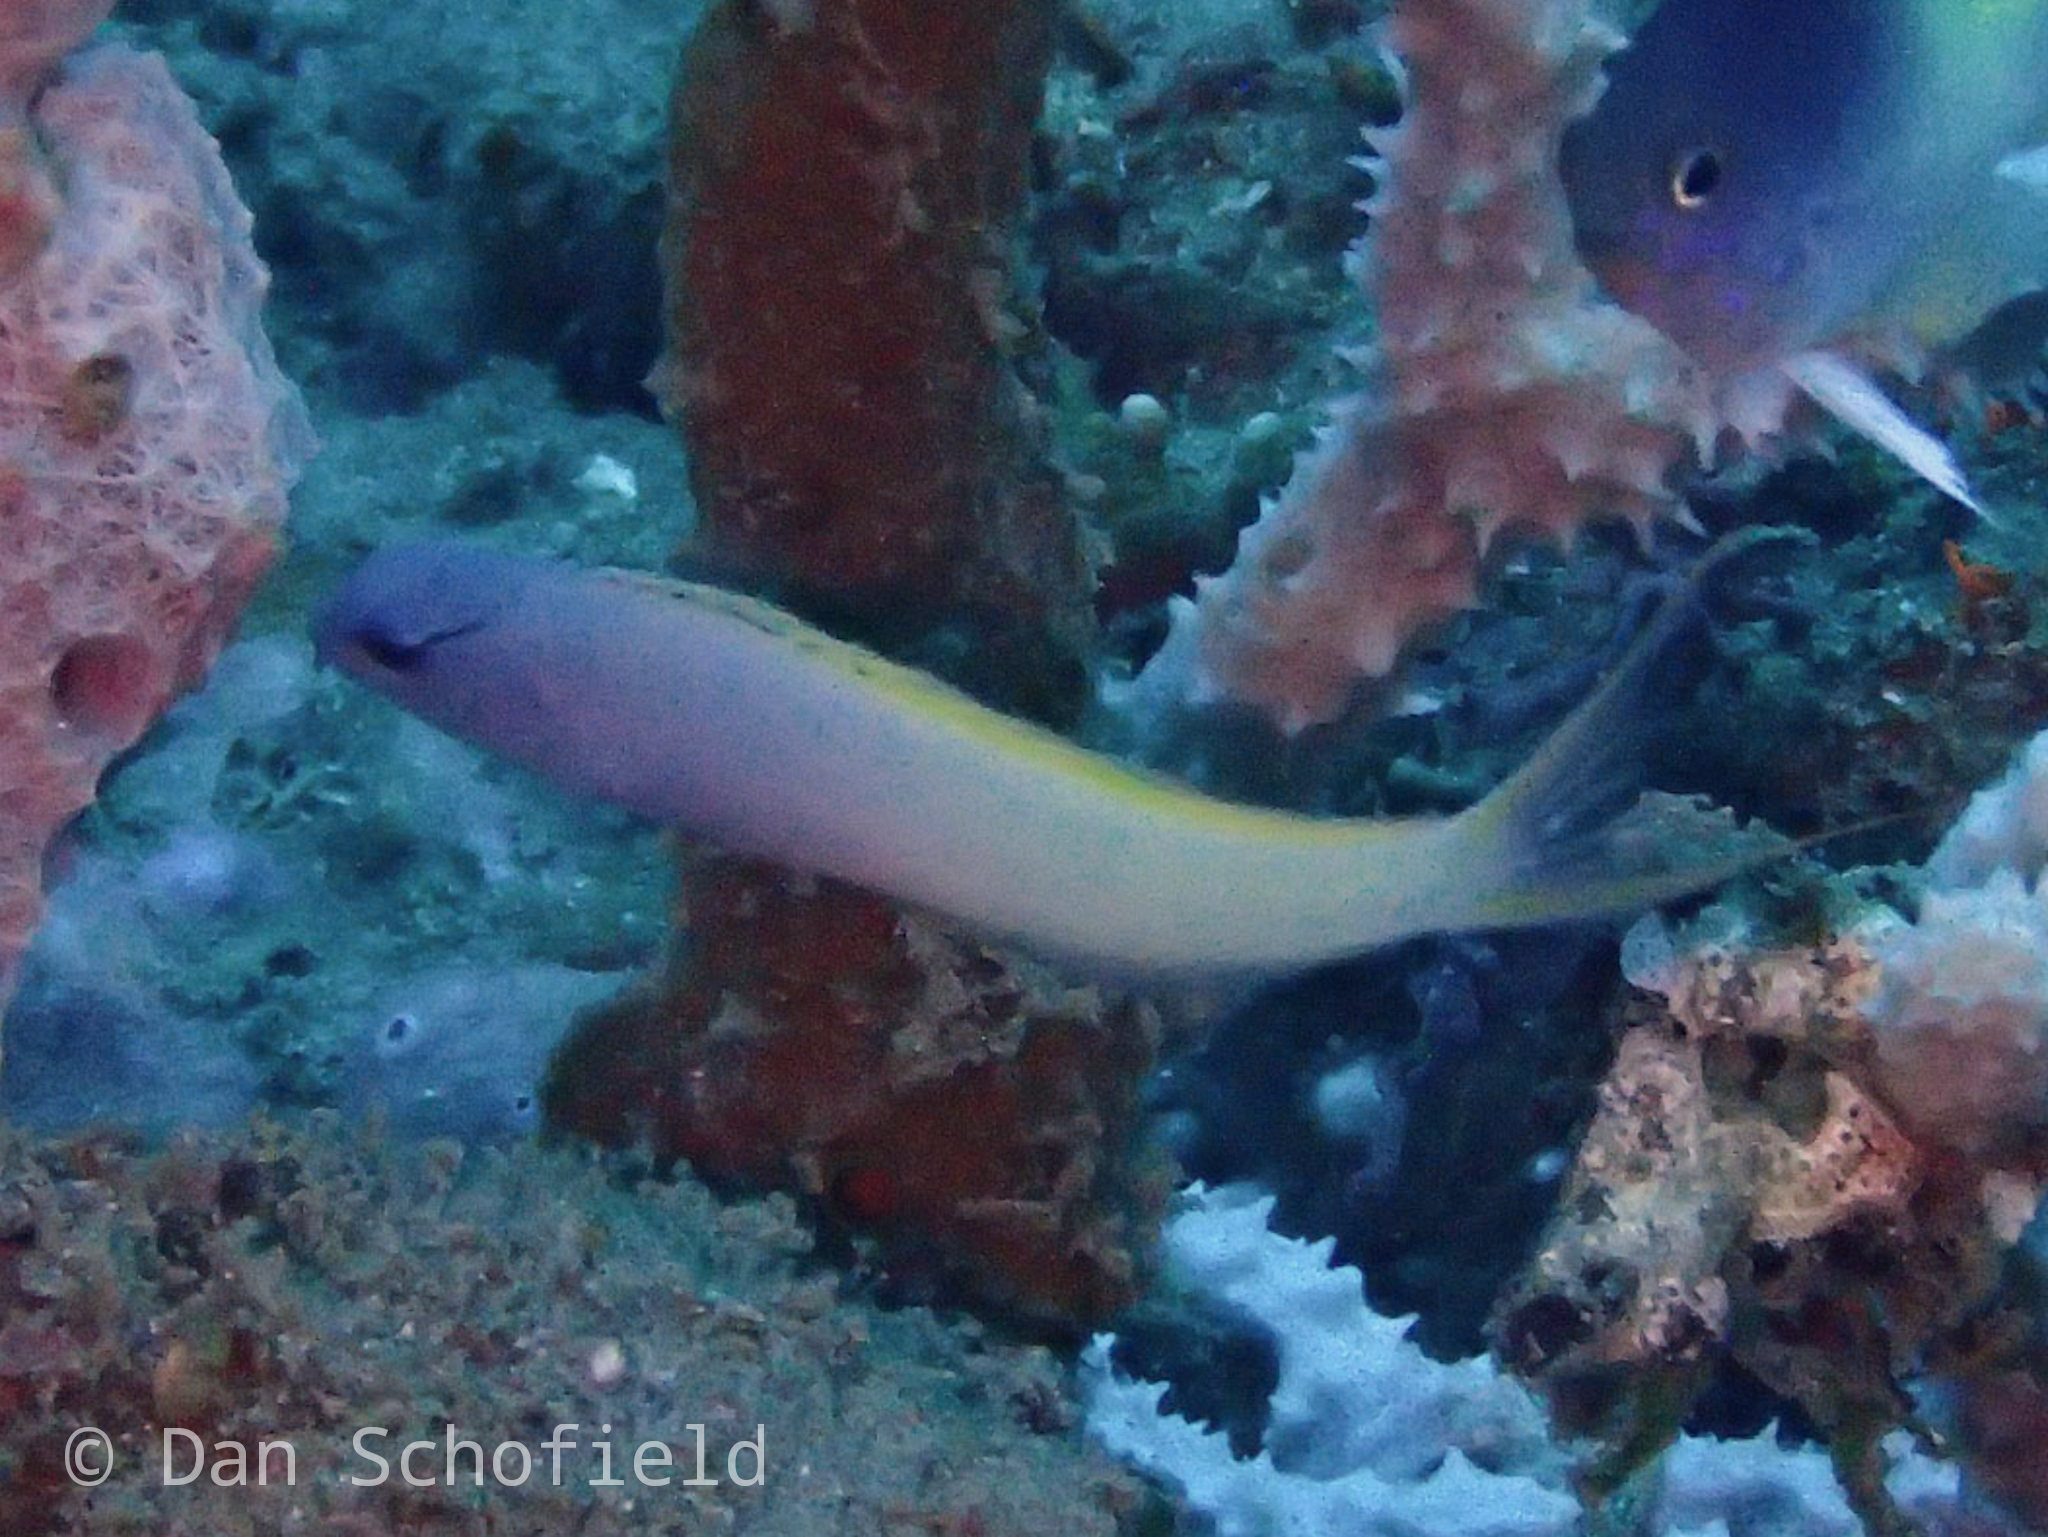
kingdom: Animalia
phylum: Chordata
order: Perciformes
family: Blenniidae
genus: Meiacanthus
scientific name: Meiacanthus atrodorsalis
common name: Eye-lash harptail-blenny
